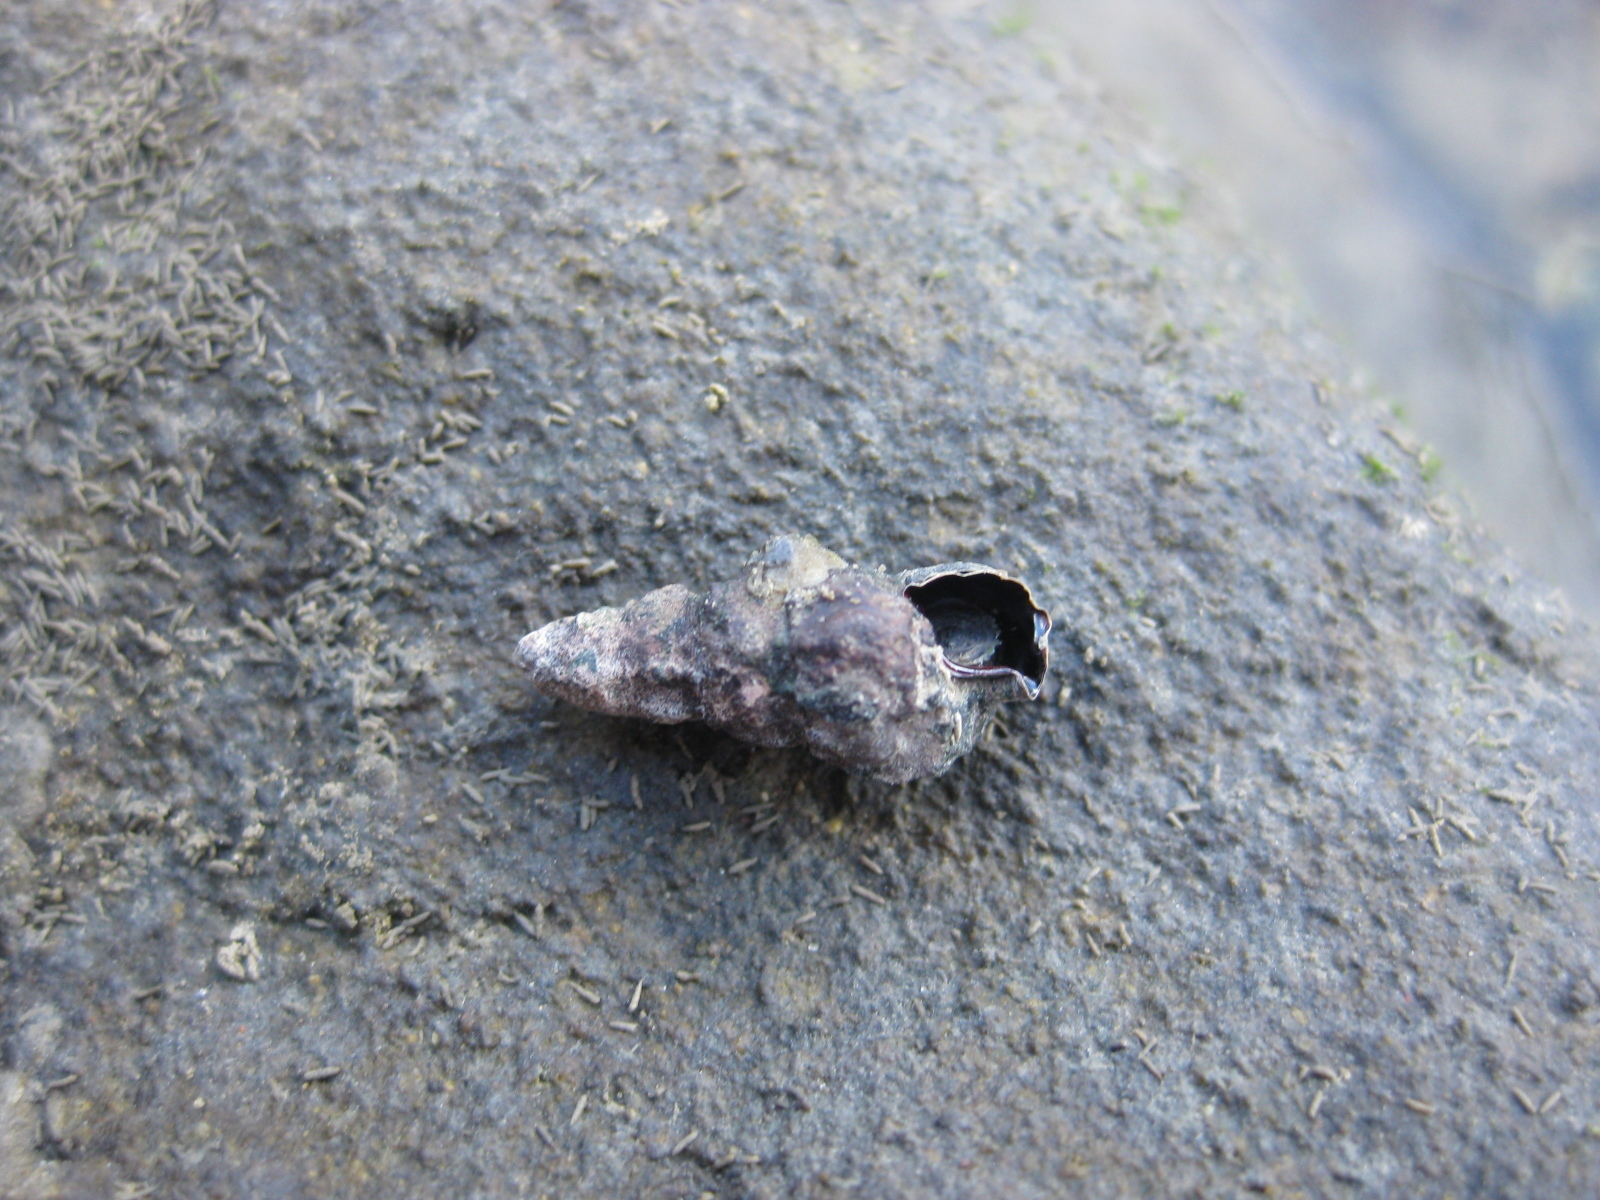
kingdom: Animalia
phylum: Mollusca
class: Gastropoda
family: Batillariidae
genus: Zeacumantus
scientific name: Zeacumantus subcarinatus
